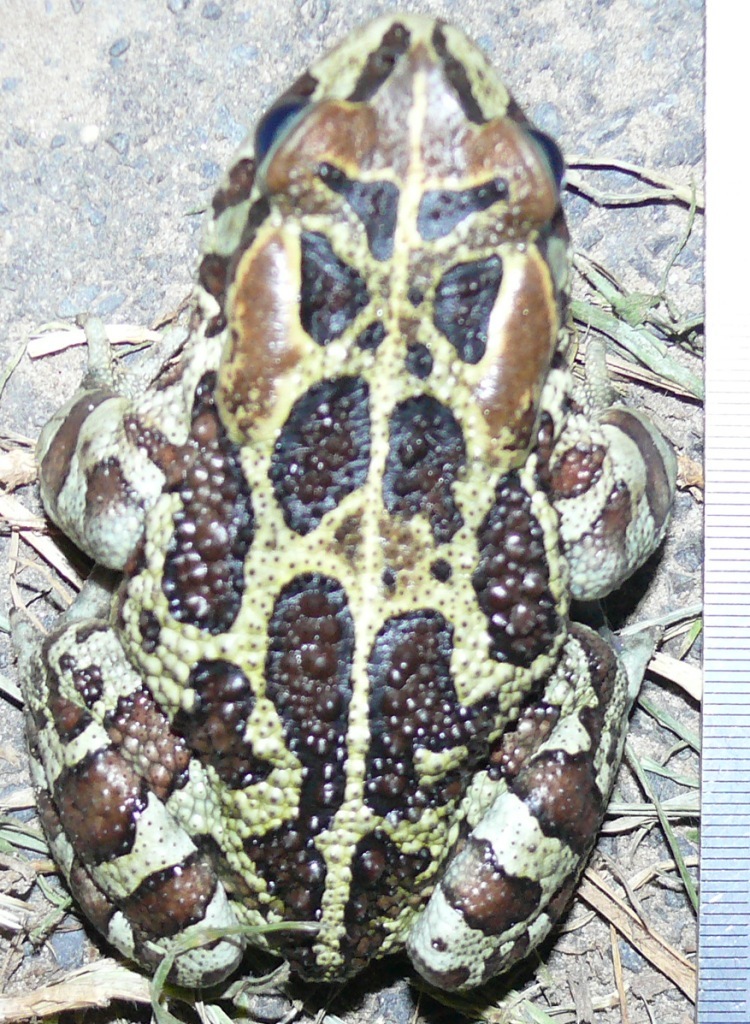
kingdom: Animalia
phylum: Chordata
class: Amphibia
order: Anura
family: Bufonidae
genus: Sclerophrys
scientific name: Sclerophrys pantherina
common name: Panther toad
